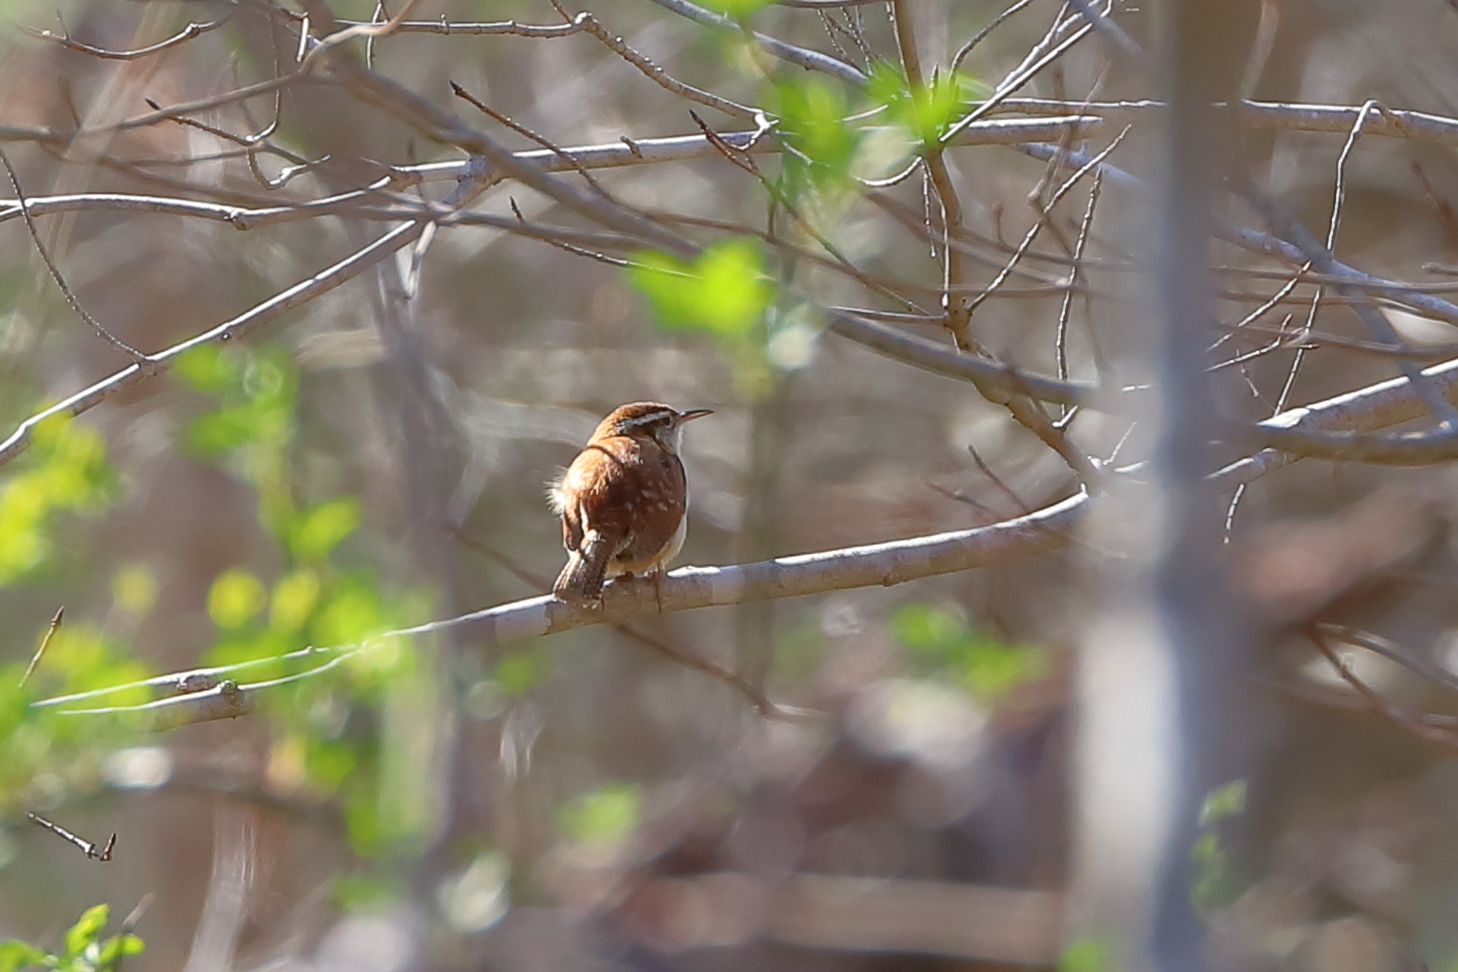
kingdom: Animalia
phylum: Chordata
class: Aves
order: Passeriformes
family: Troglodytidae
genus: Thryothorus
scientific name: Thryothorus ludovicianus
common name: Carolina wren
